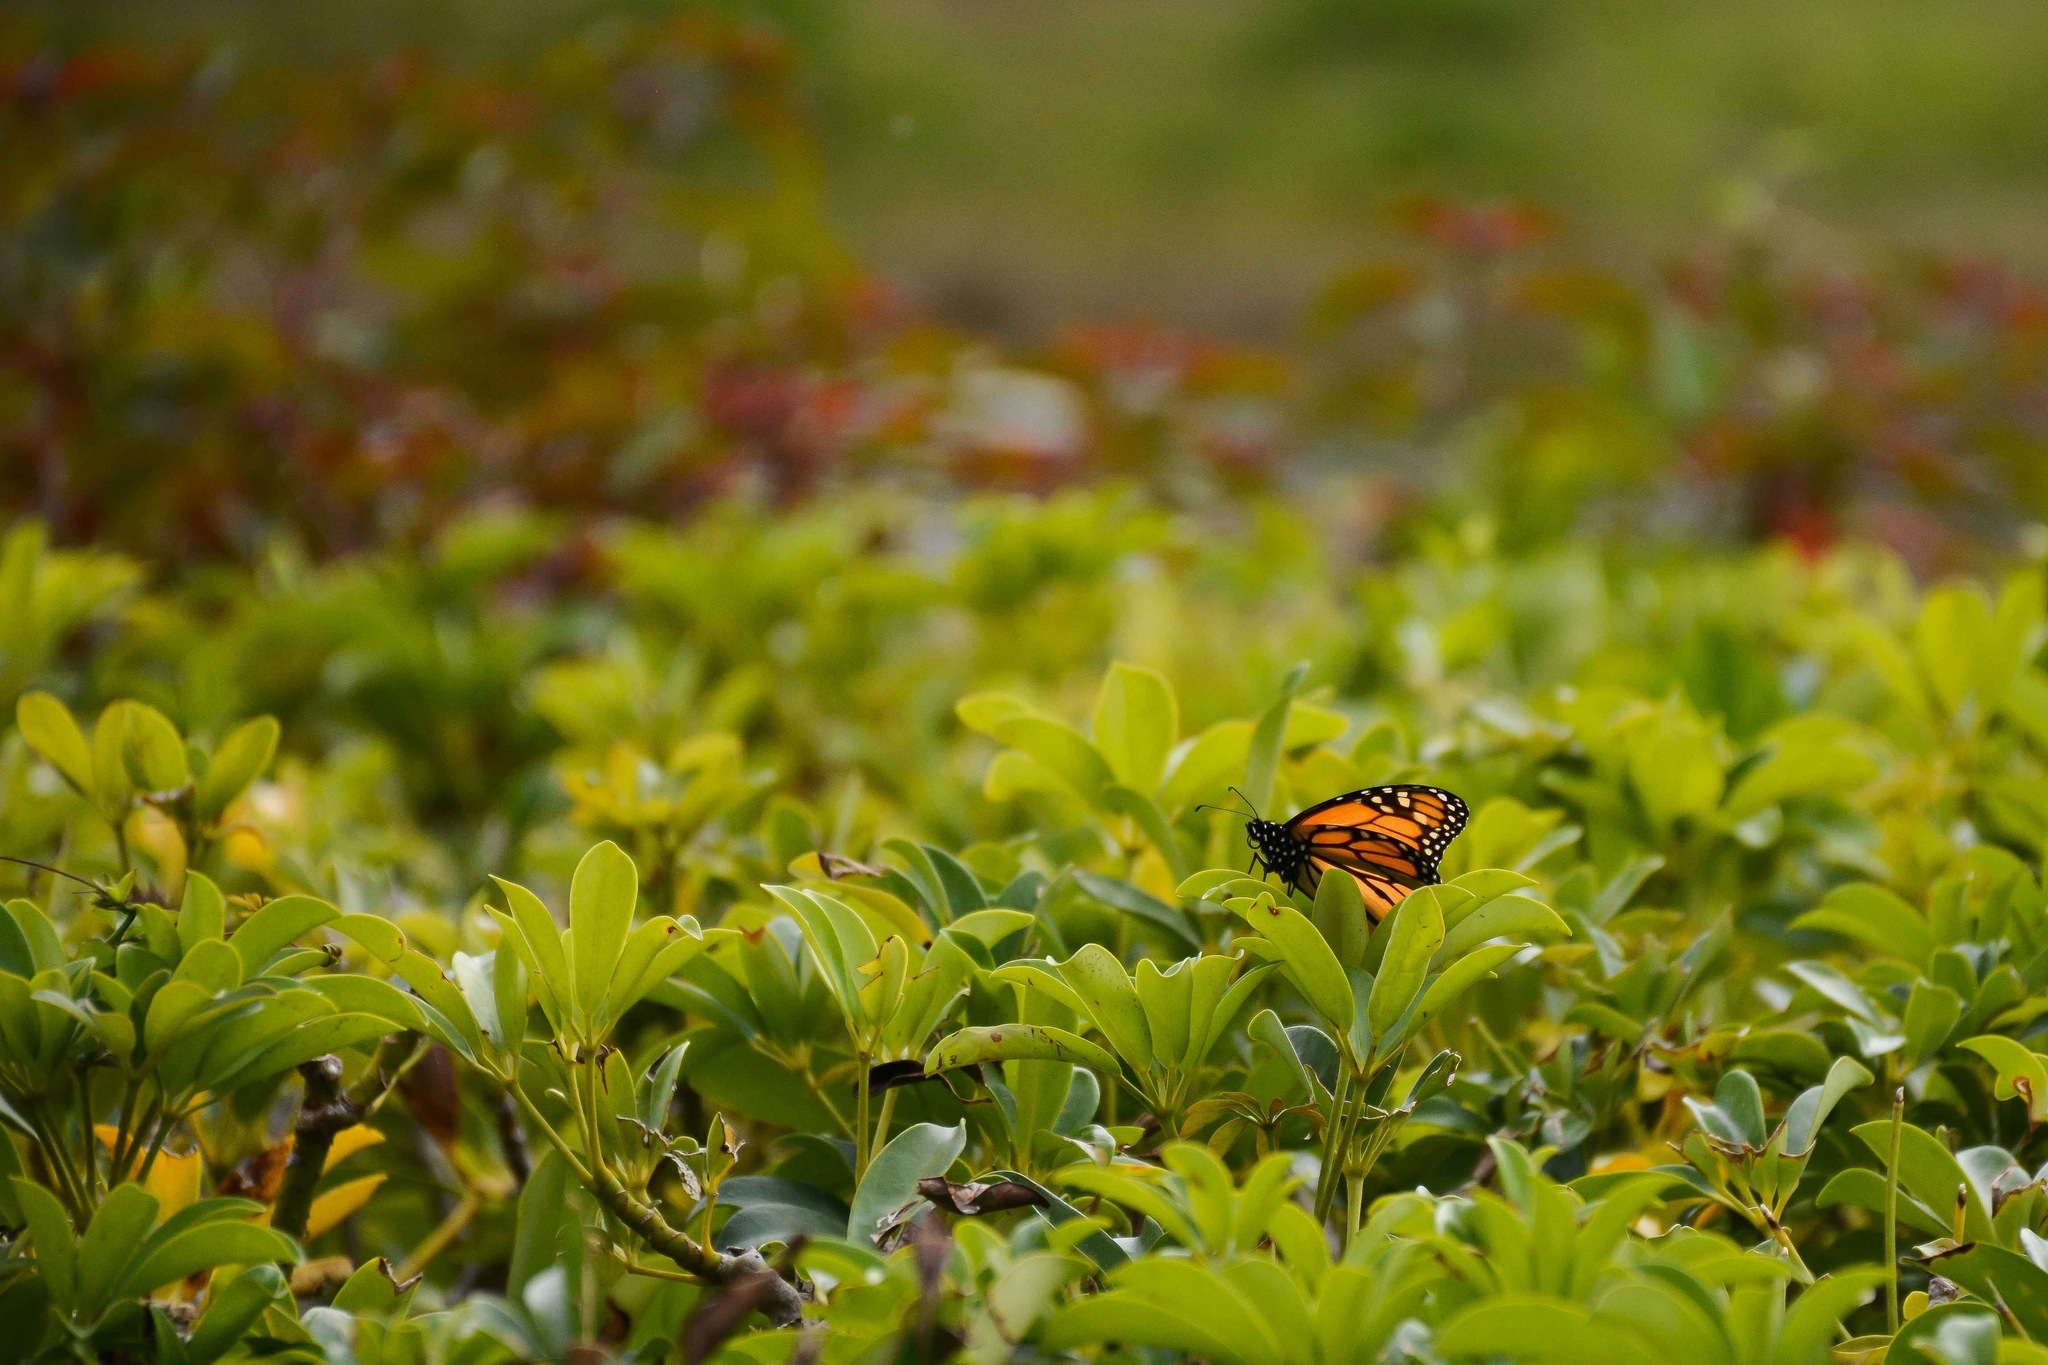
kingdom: Animalia
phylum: Arthropoda
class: Insecta
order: Lepidoptera
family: Nymphalidae
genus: Danaus
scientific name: Danaus plexippus
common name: Monarch
